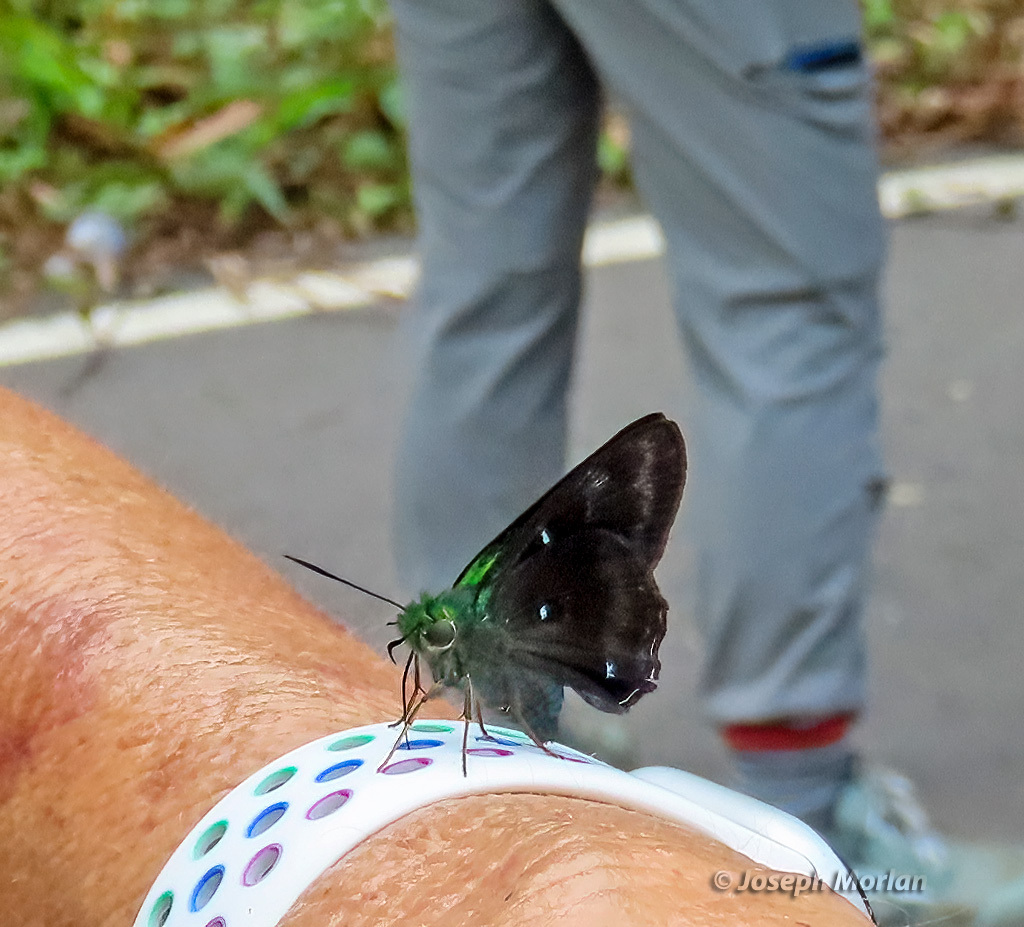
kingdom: Animalia
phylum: Arthropoda
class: Insecta
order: Lepidoptera
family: Hesperiidae
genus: Allora
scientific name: Allora doleschallii
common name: Peacock awl
